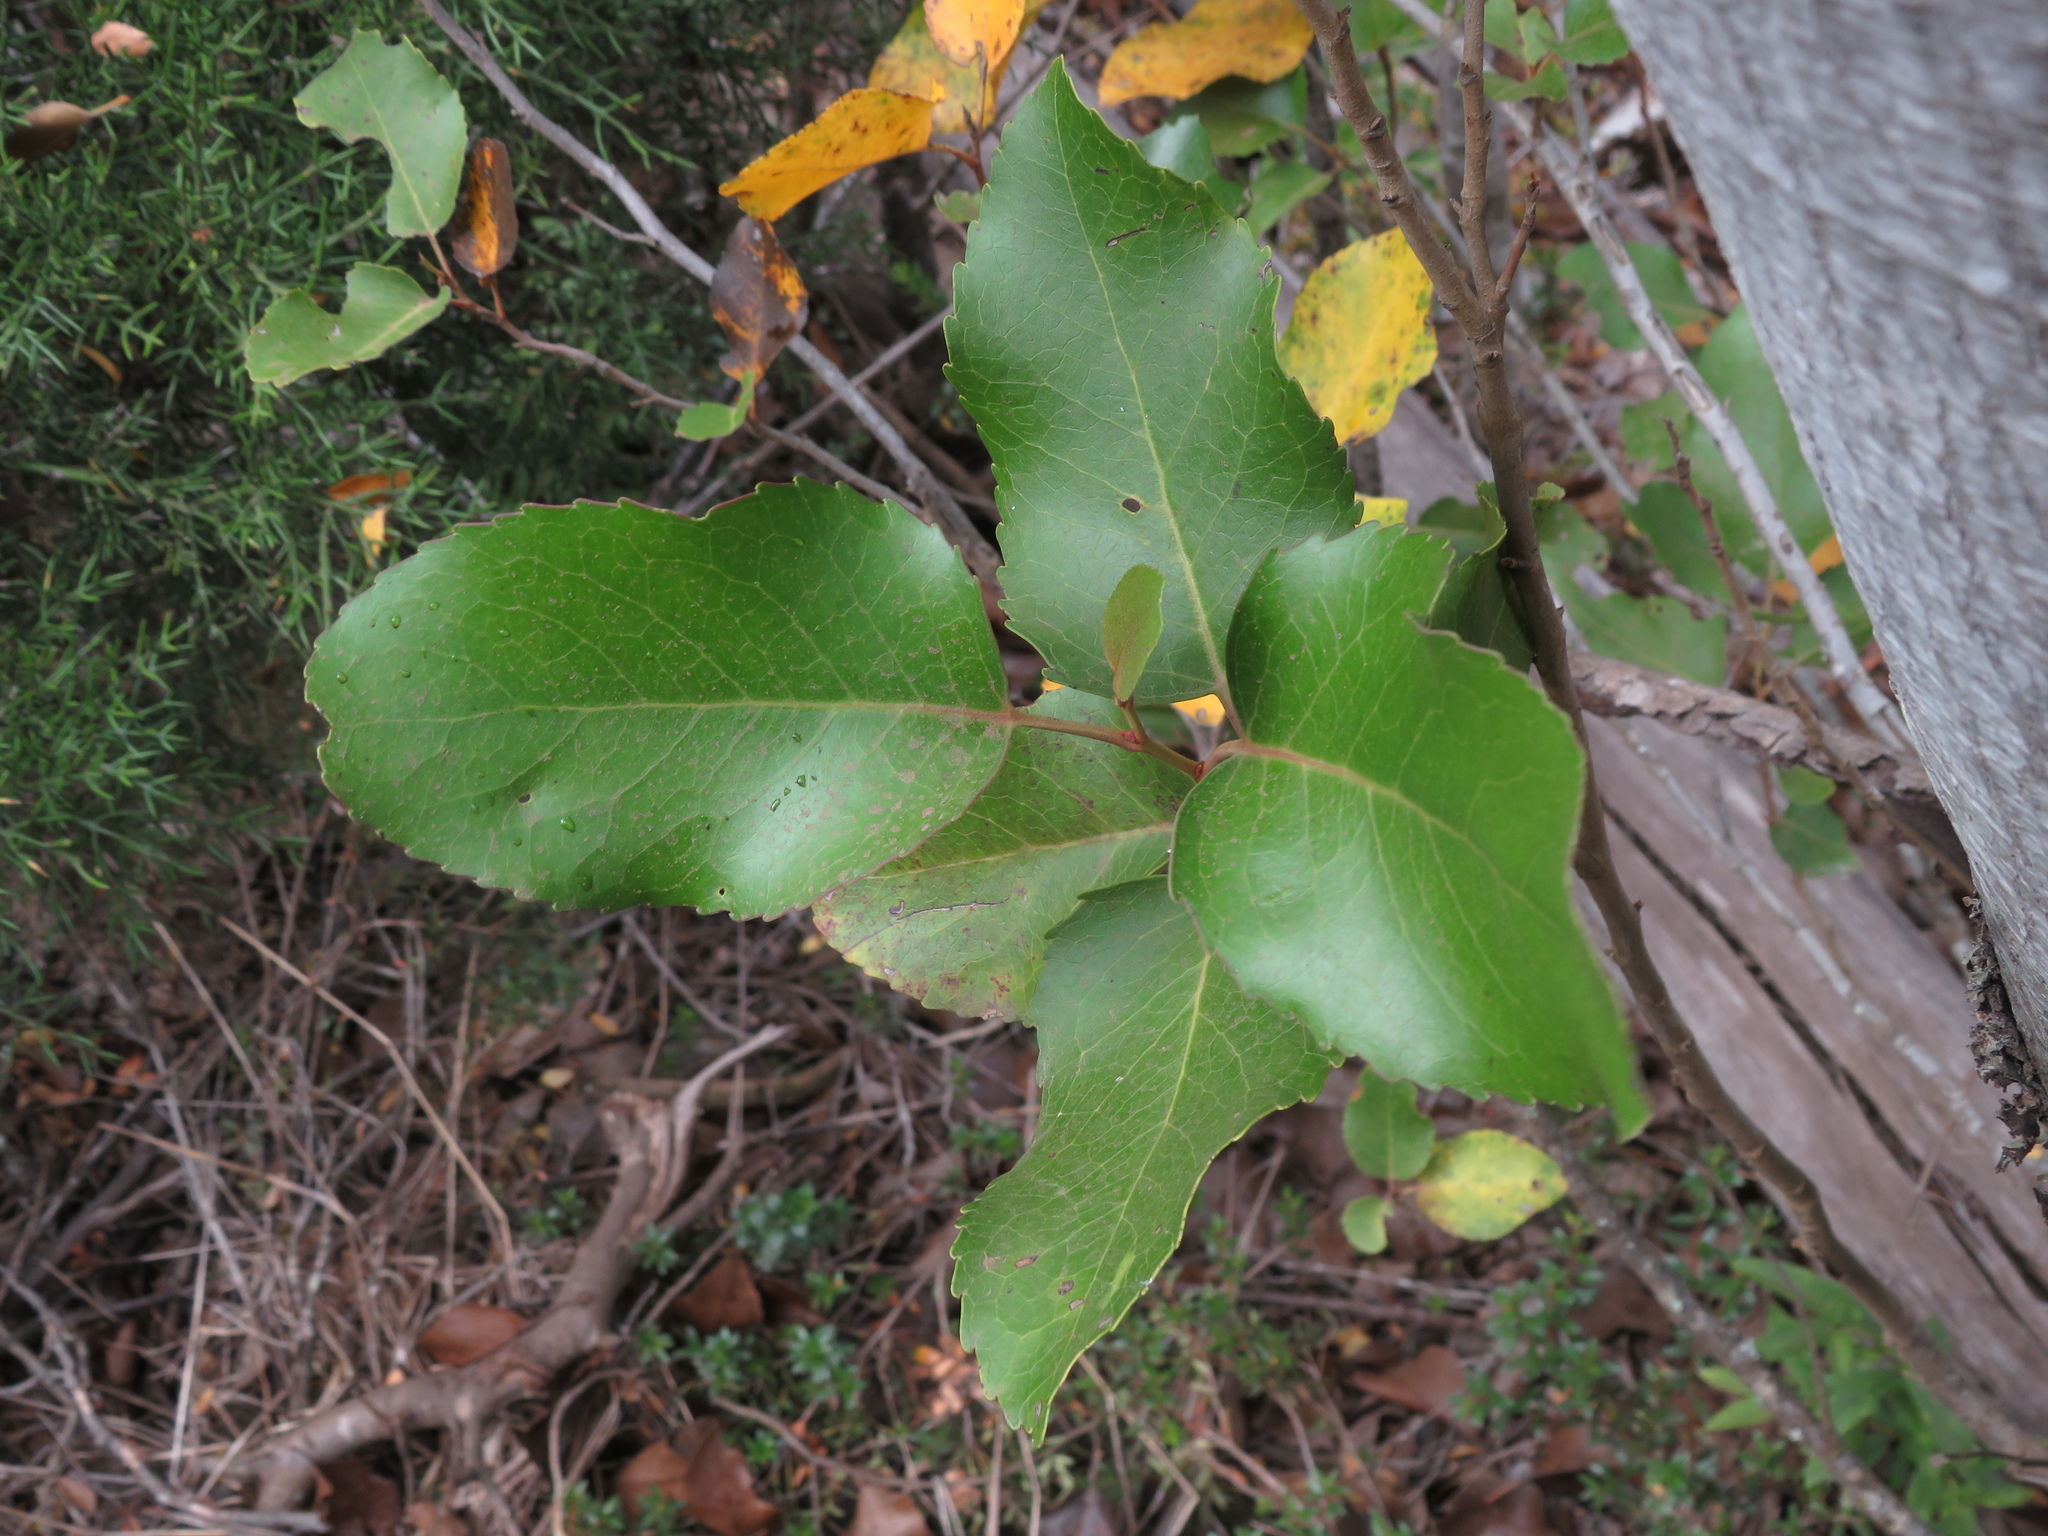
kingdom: Plantae
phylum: Tracheophyta
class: Magnoliopsida
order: Proteales
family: Proteaceae
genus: Lomatia
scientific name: Lomatia hirsuta
